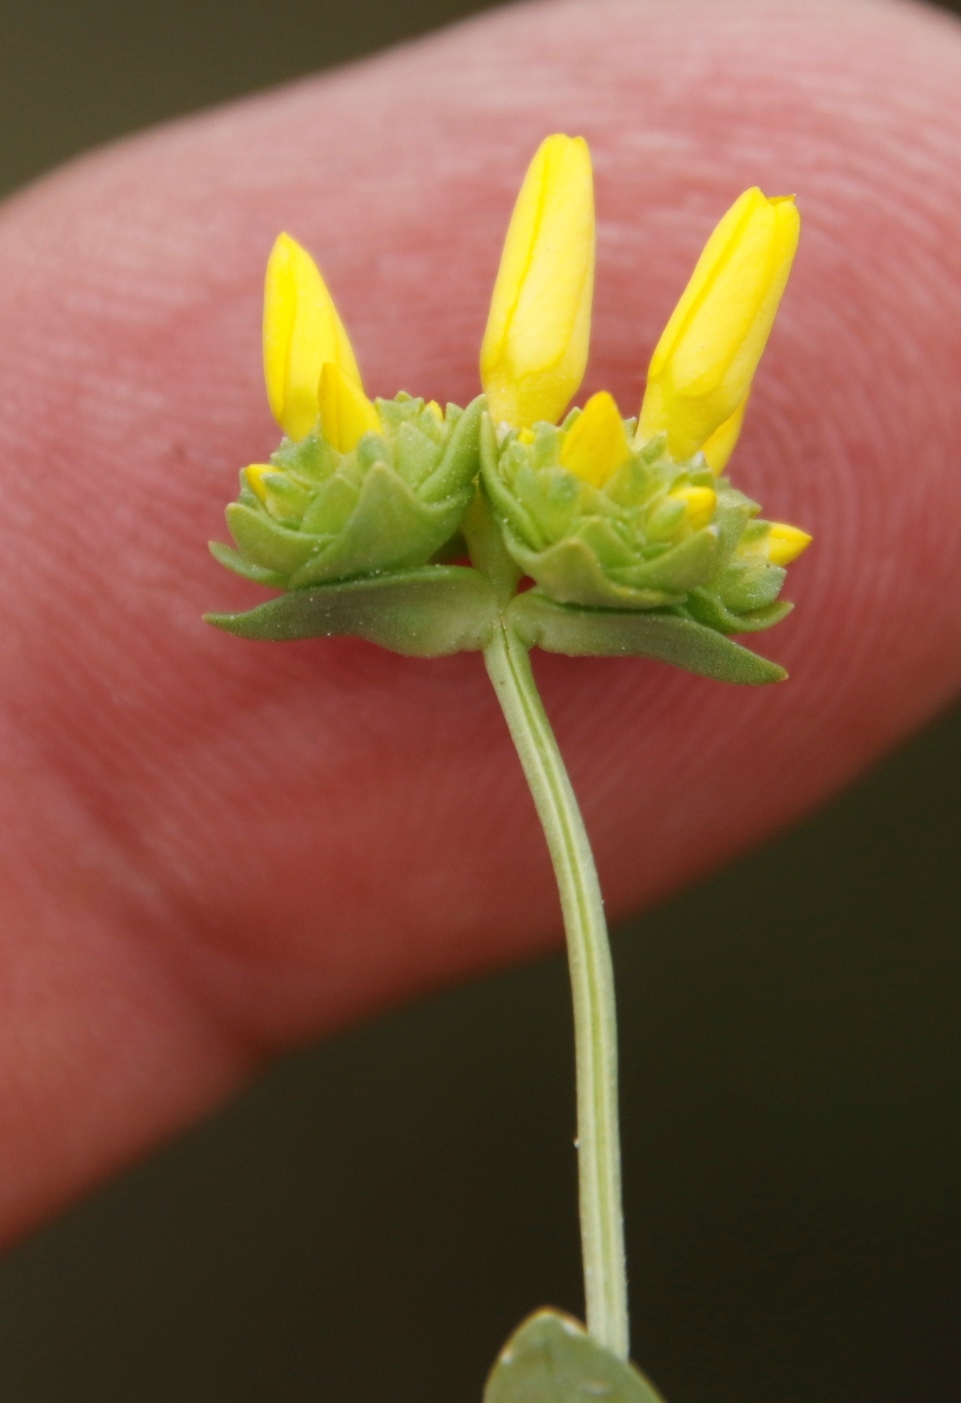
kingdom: Plantae
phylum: Tracheophyta
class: Magnoliopsida
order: Gentianales
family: Gentianaceae
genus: Sebaea
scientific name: Sebaea ambigua
